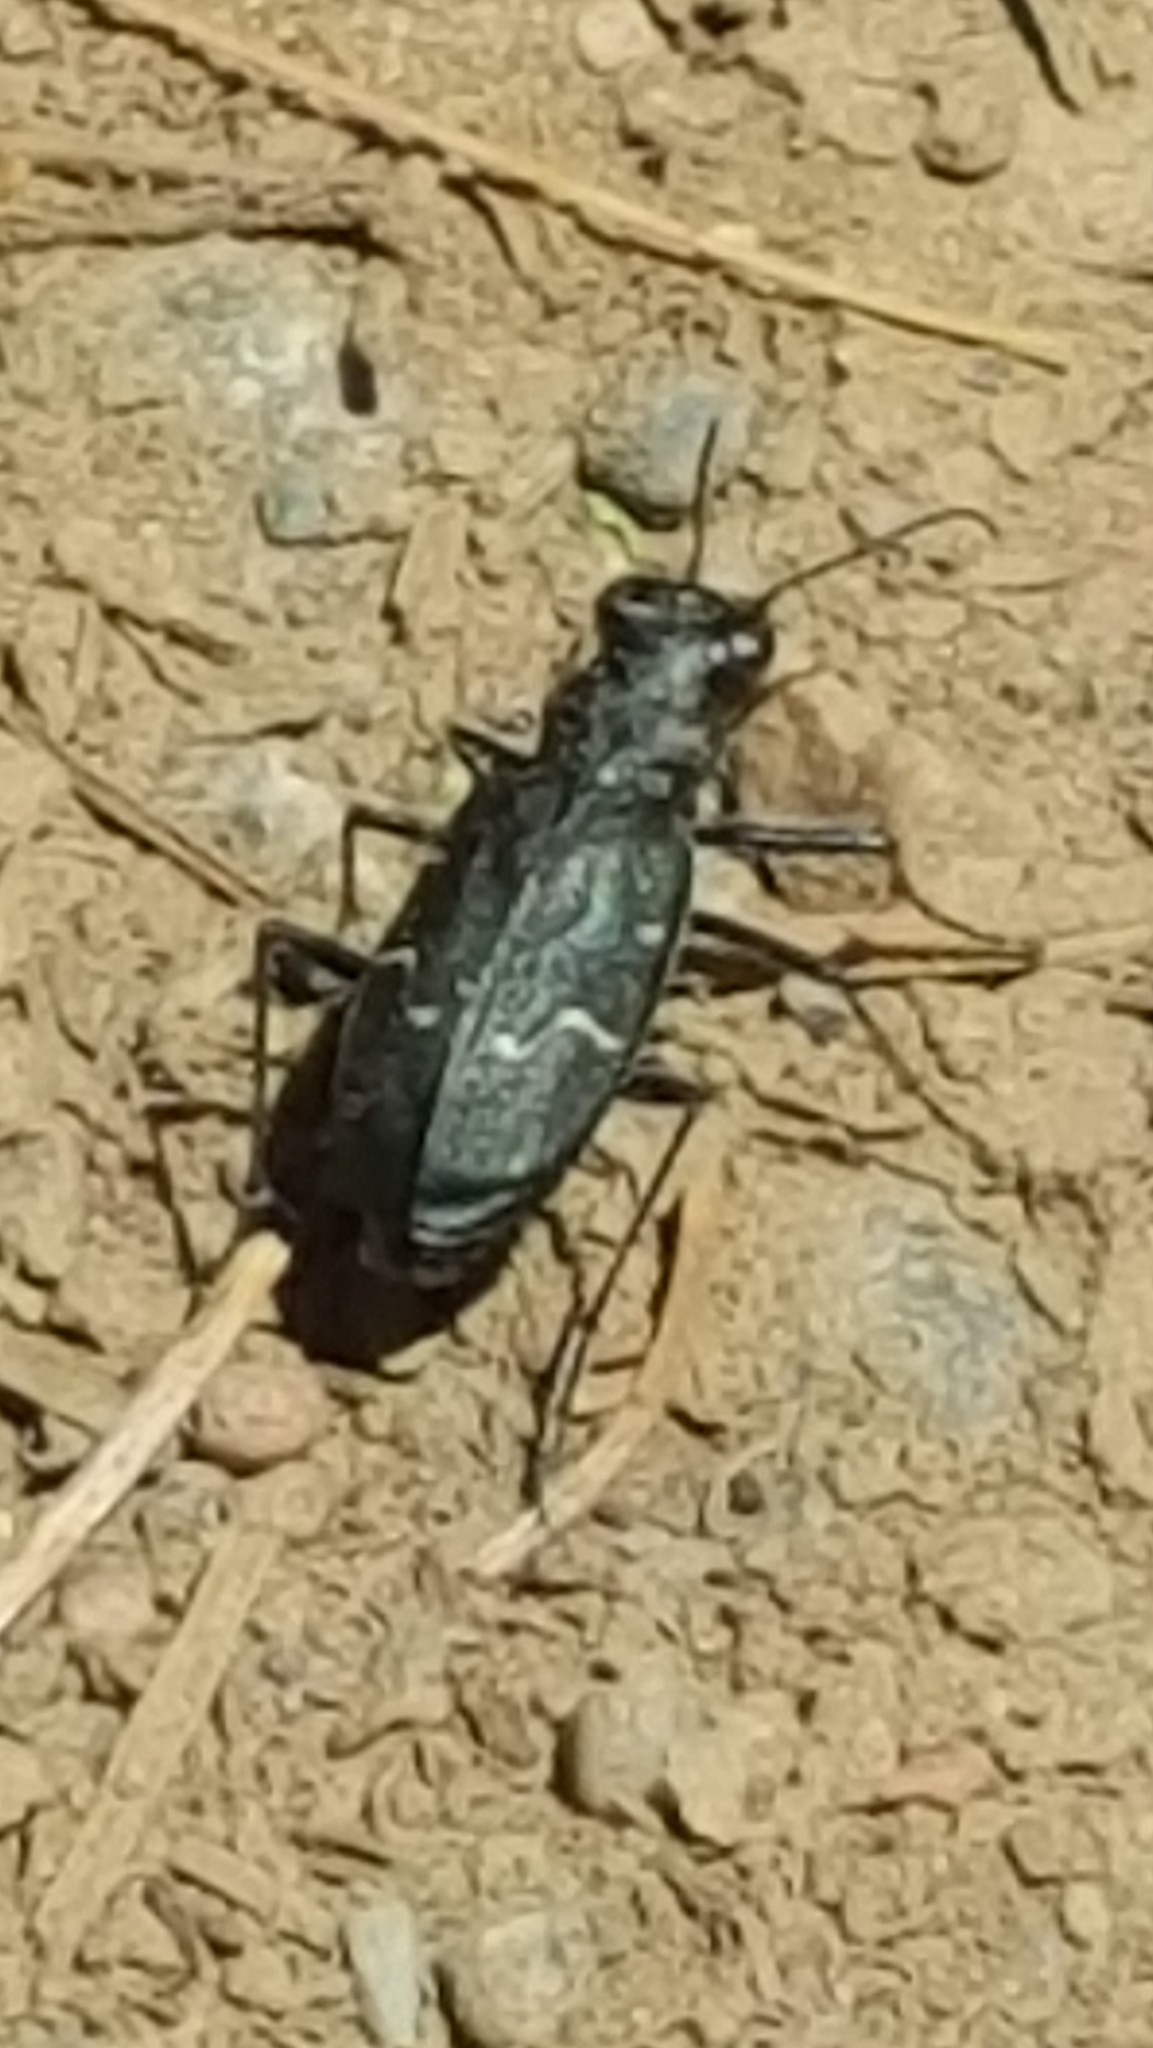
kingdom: Animalia
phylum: Arthropoda
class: Insecta
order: Coleoptera
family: Carabidae
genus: Cicindela
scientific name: Cicindela longilabris
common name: Boreal long-lipped tiger beetle
